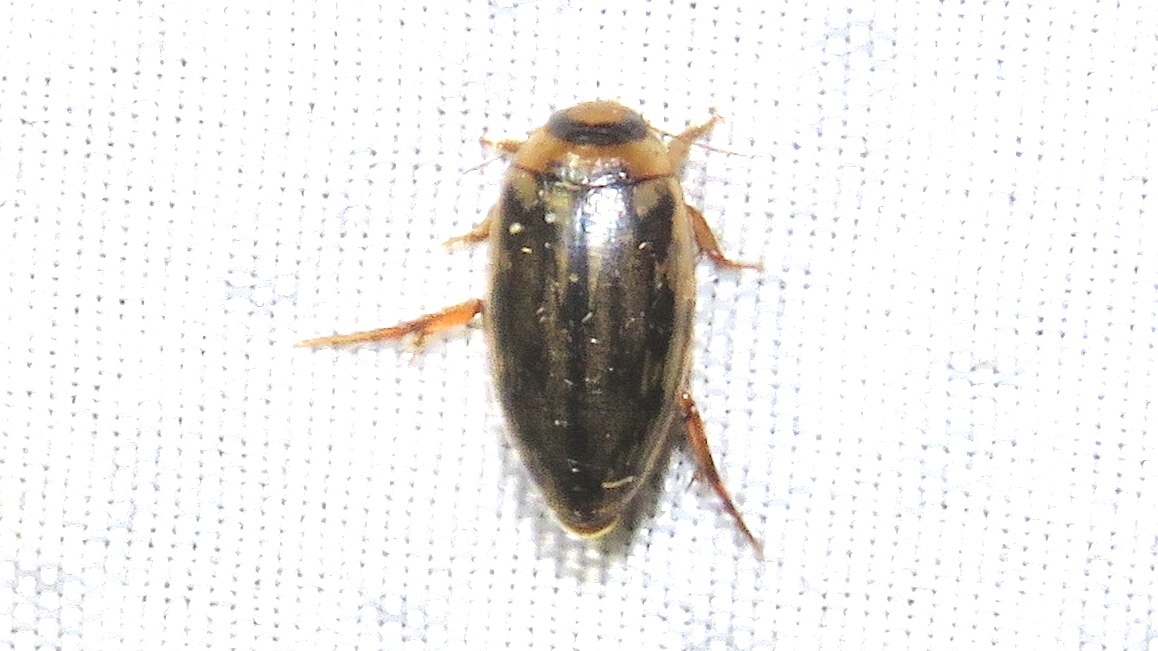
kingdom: Animalia
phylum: Arthropoda
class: Insecta
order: Coleoptera
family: Dytiscidae
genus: Coptotomus
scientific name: Coptotomus longulus
